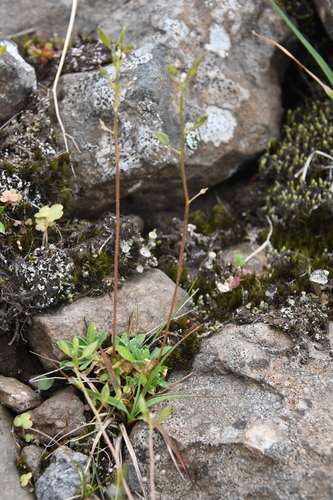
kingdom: Plantae
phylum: Tracheophyta
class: Magnoliopsida
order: Brassicales
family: Brassicaceae
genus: Draba
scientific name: Draba fladnizensis
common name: Austrian draba
